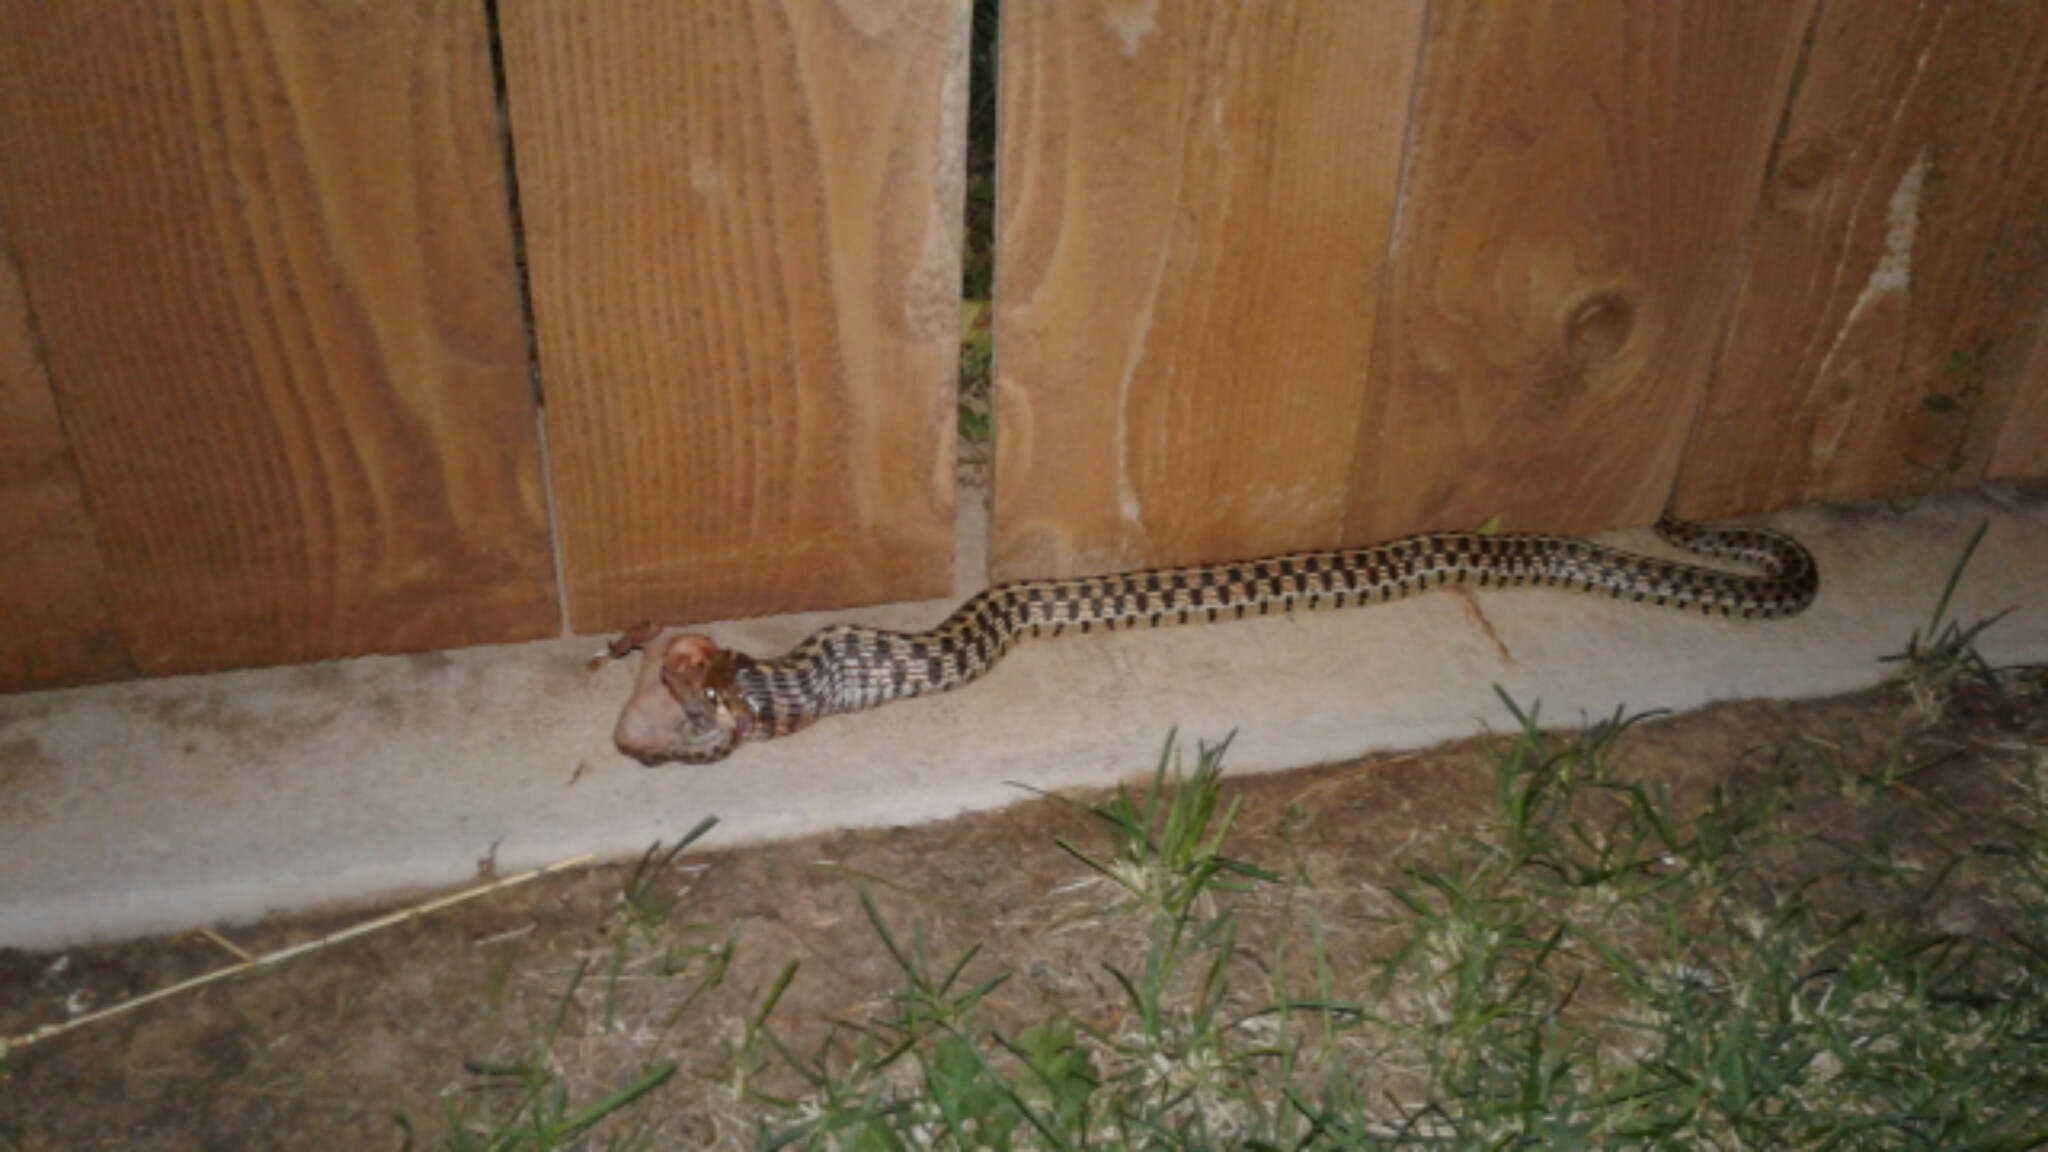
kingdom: Animalia
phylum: Chordata
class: Squamata
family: Colubridae
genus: Thamnophis
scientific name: Thamnophis marcianus
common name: Checkered garter snake
